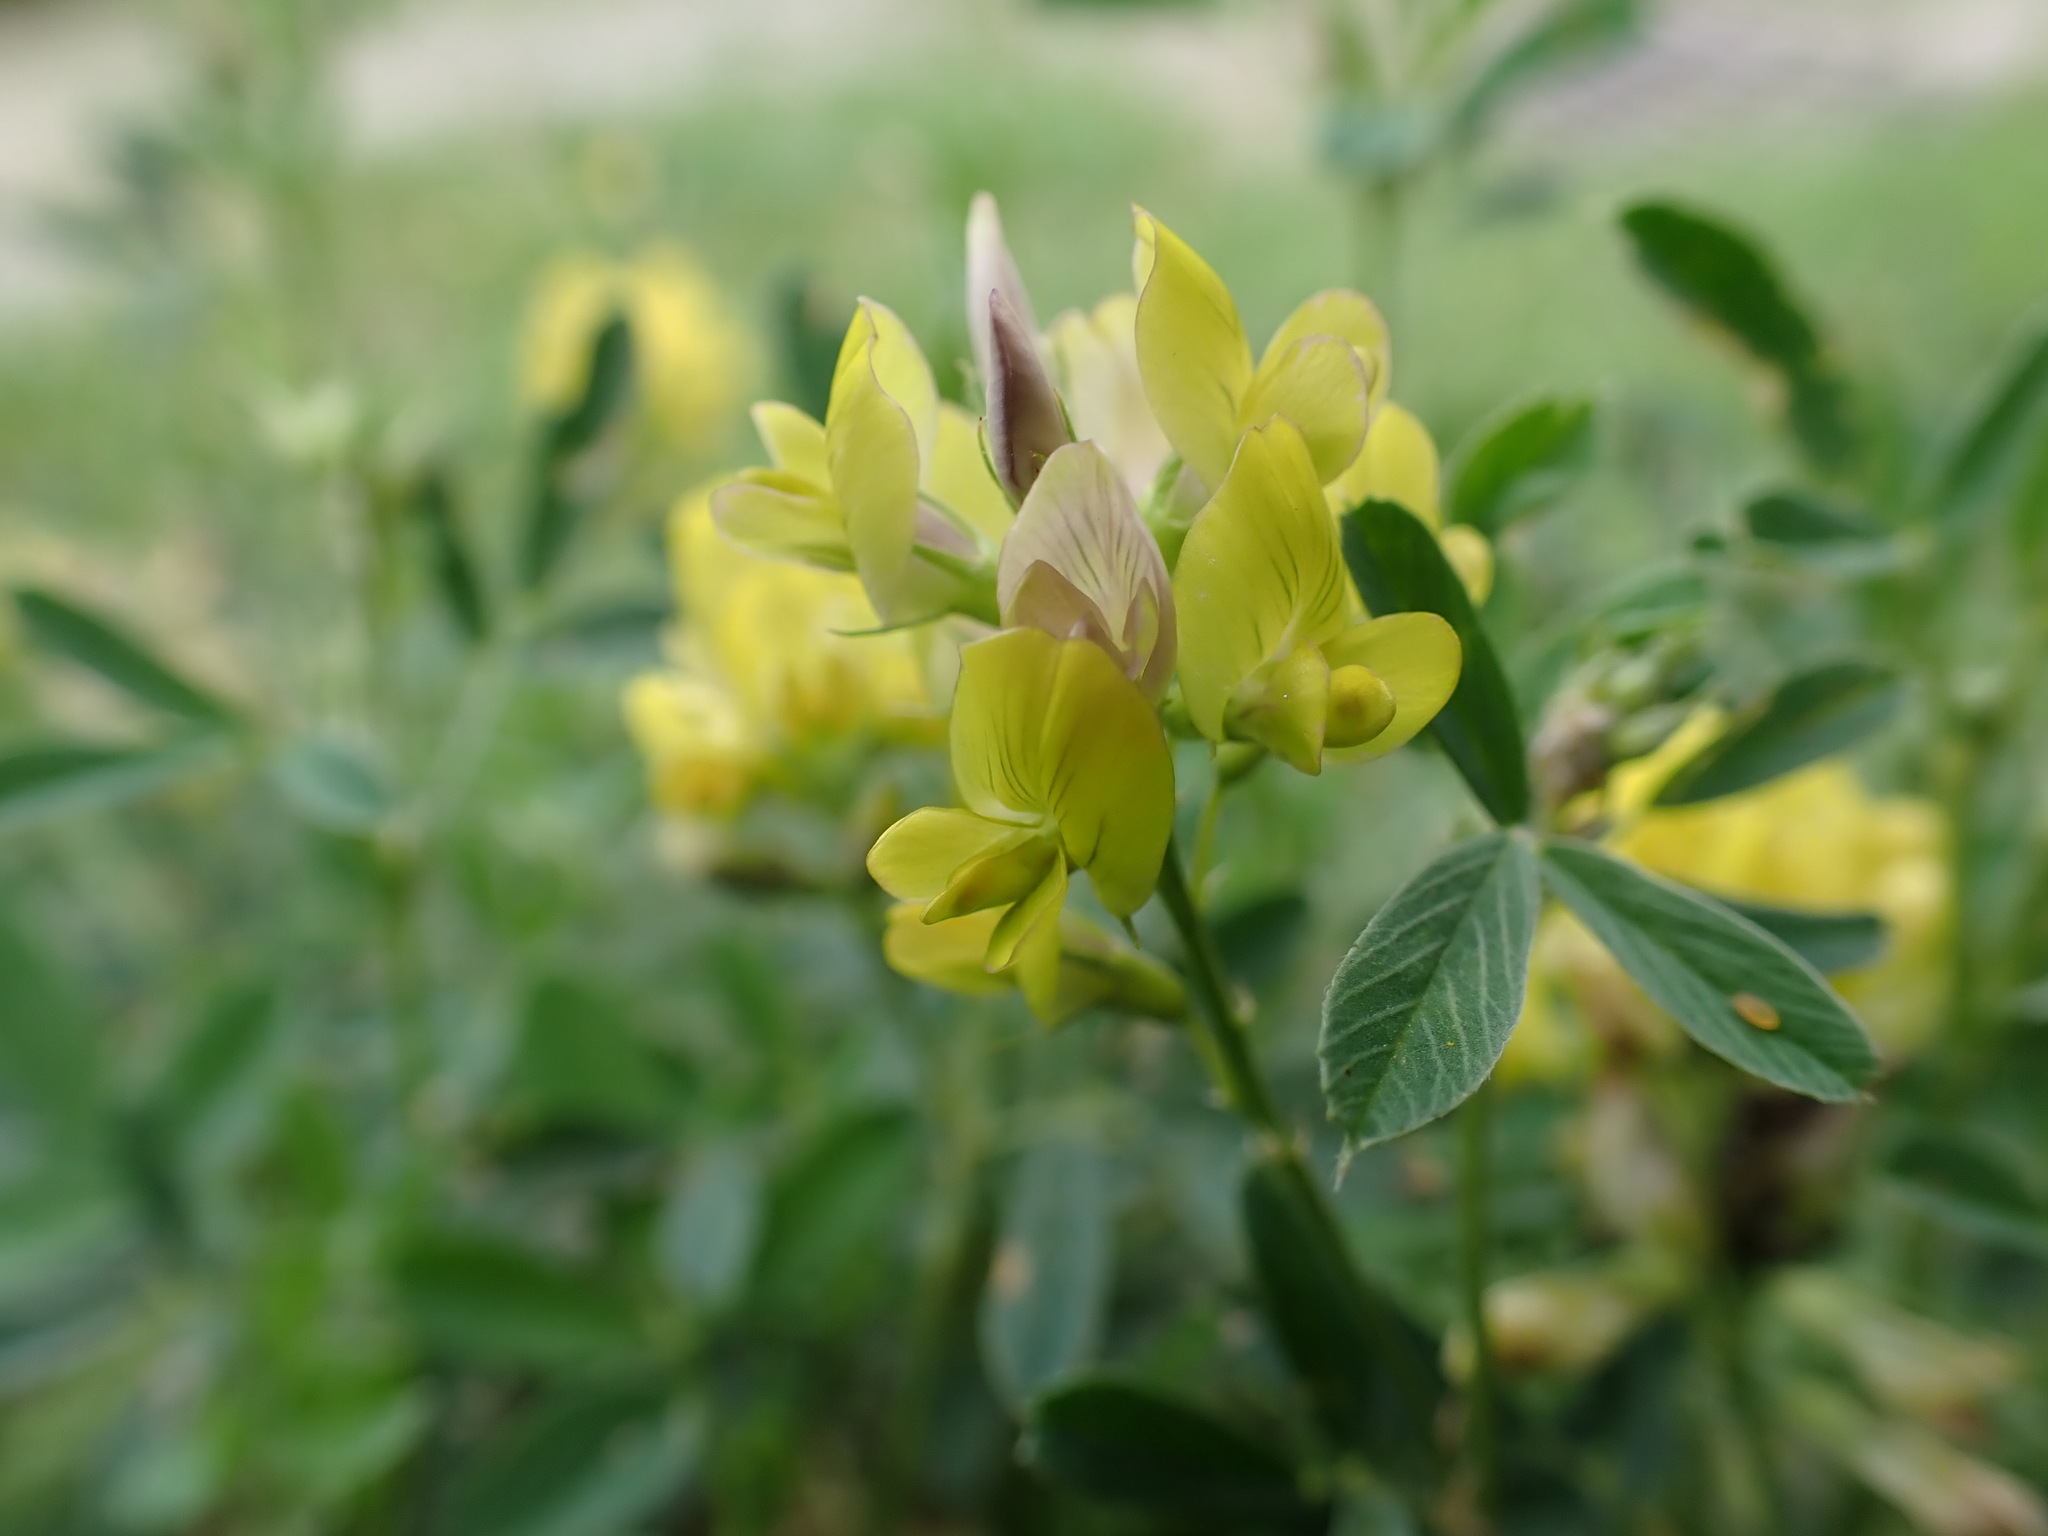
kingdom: Plantae
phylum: Tracheophyta
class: Magnoliopsida
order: Fabales
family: Fabaceae
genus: Medicago
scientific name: Medicago varia
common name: Sand lucerne
